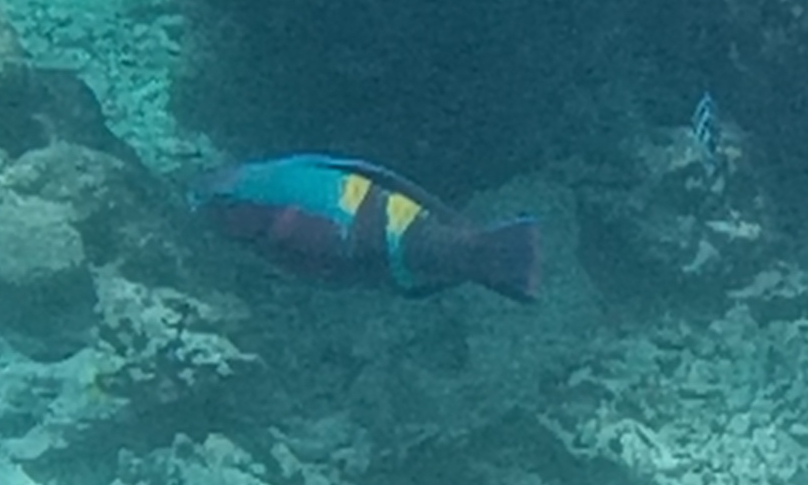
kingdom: Animalia
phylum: Chordata
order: Perciformes
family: Scaridae
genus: Scarus
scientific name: Scarus schlegeli
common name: Schlegel's parrotfish
